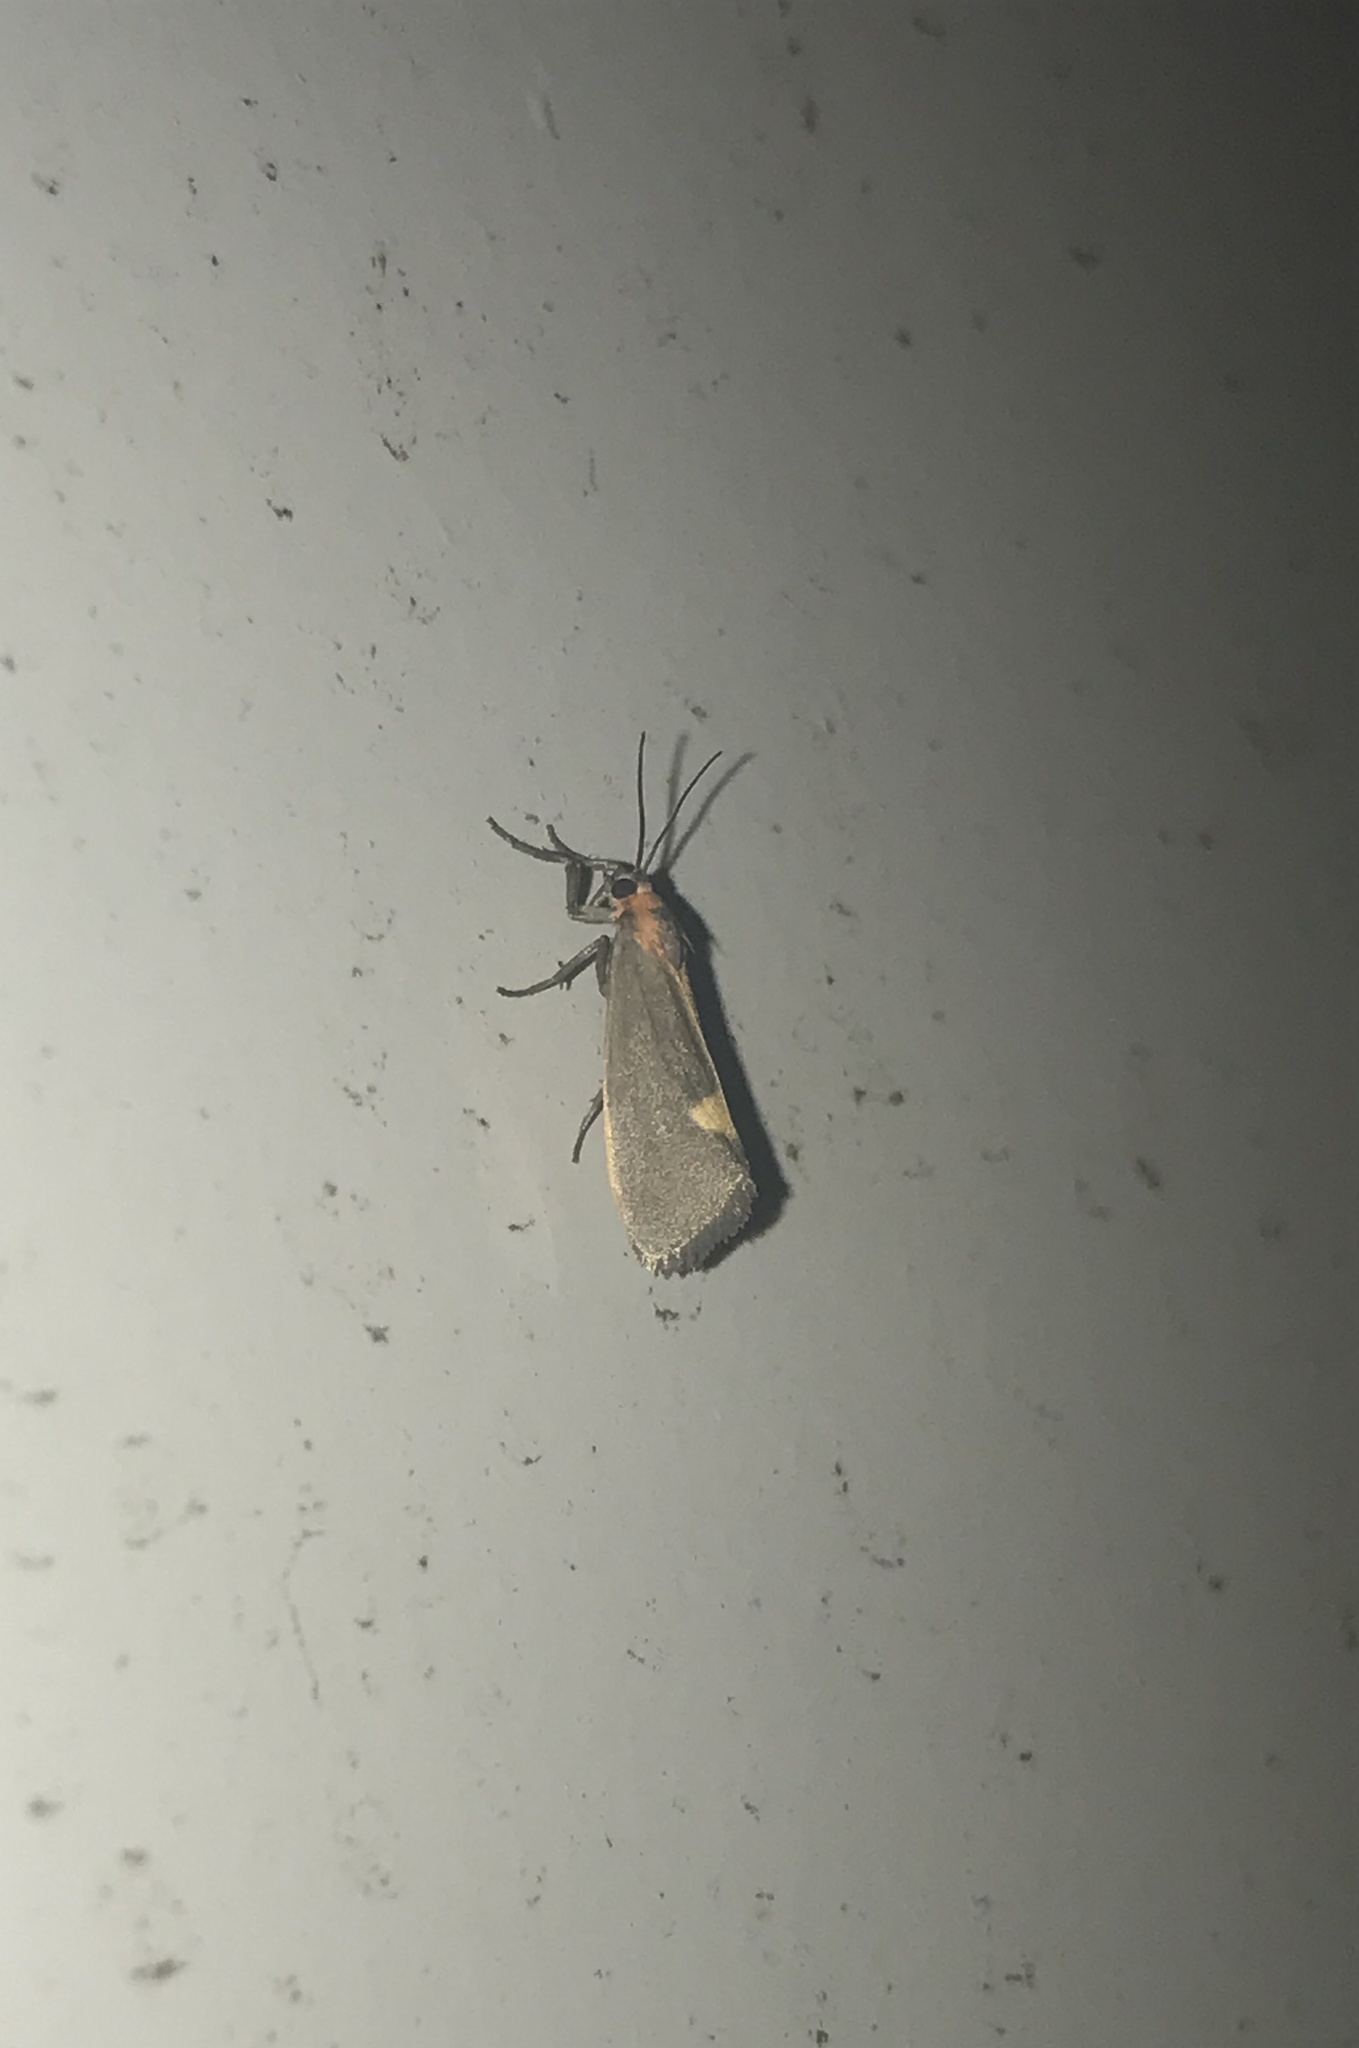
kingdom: Animalia
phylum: Arthropoda
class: Insecta
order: Lepidoptera
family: Erebidae
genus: Cisthene
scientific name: Cisthene plumbea
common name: Lead colored lichen moth
